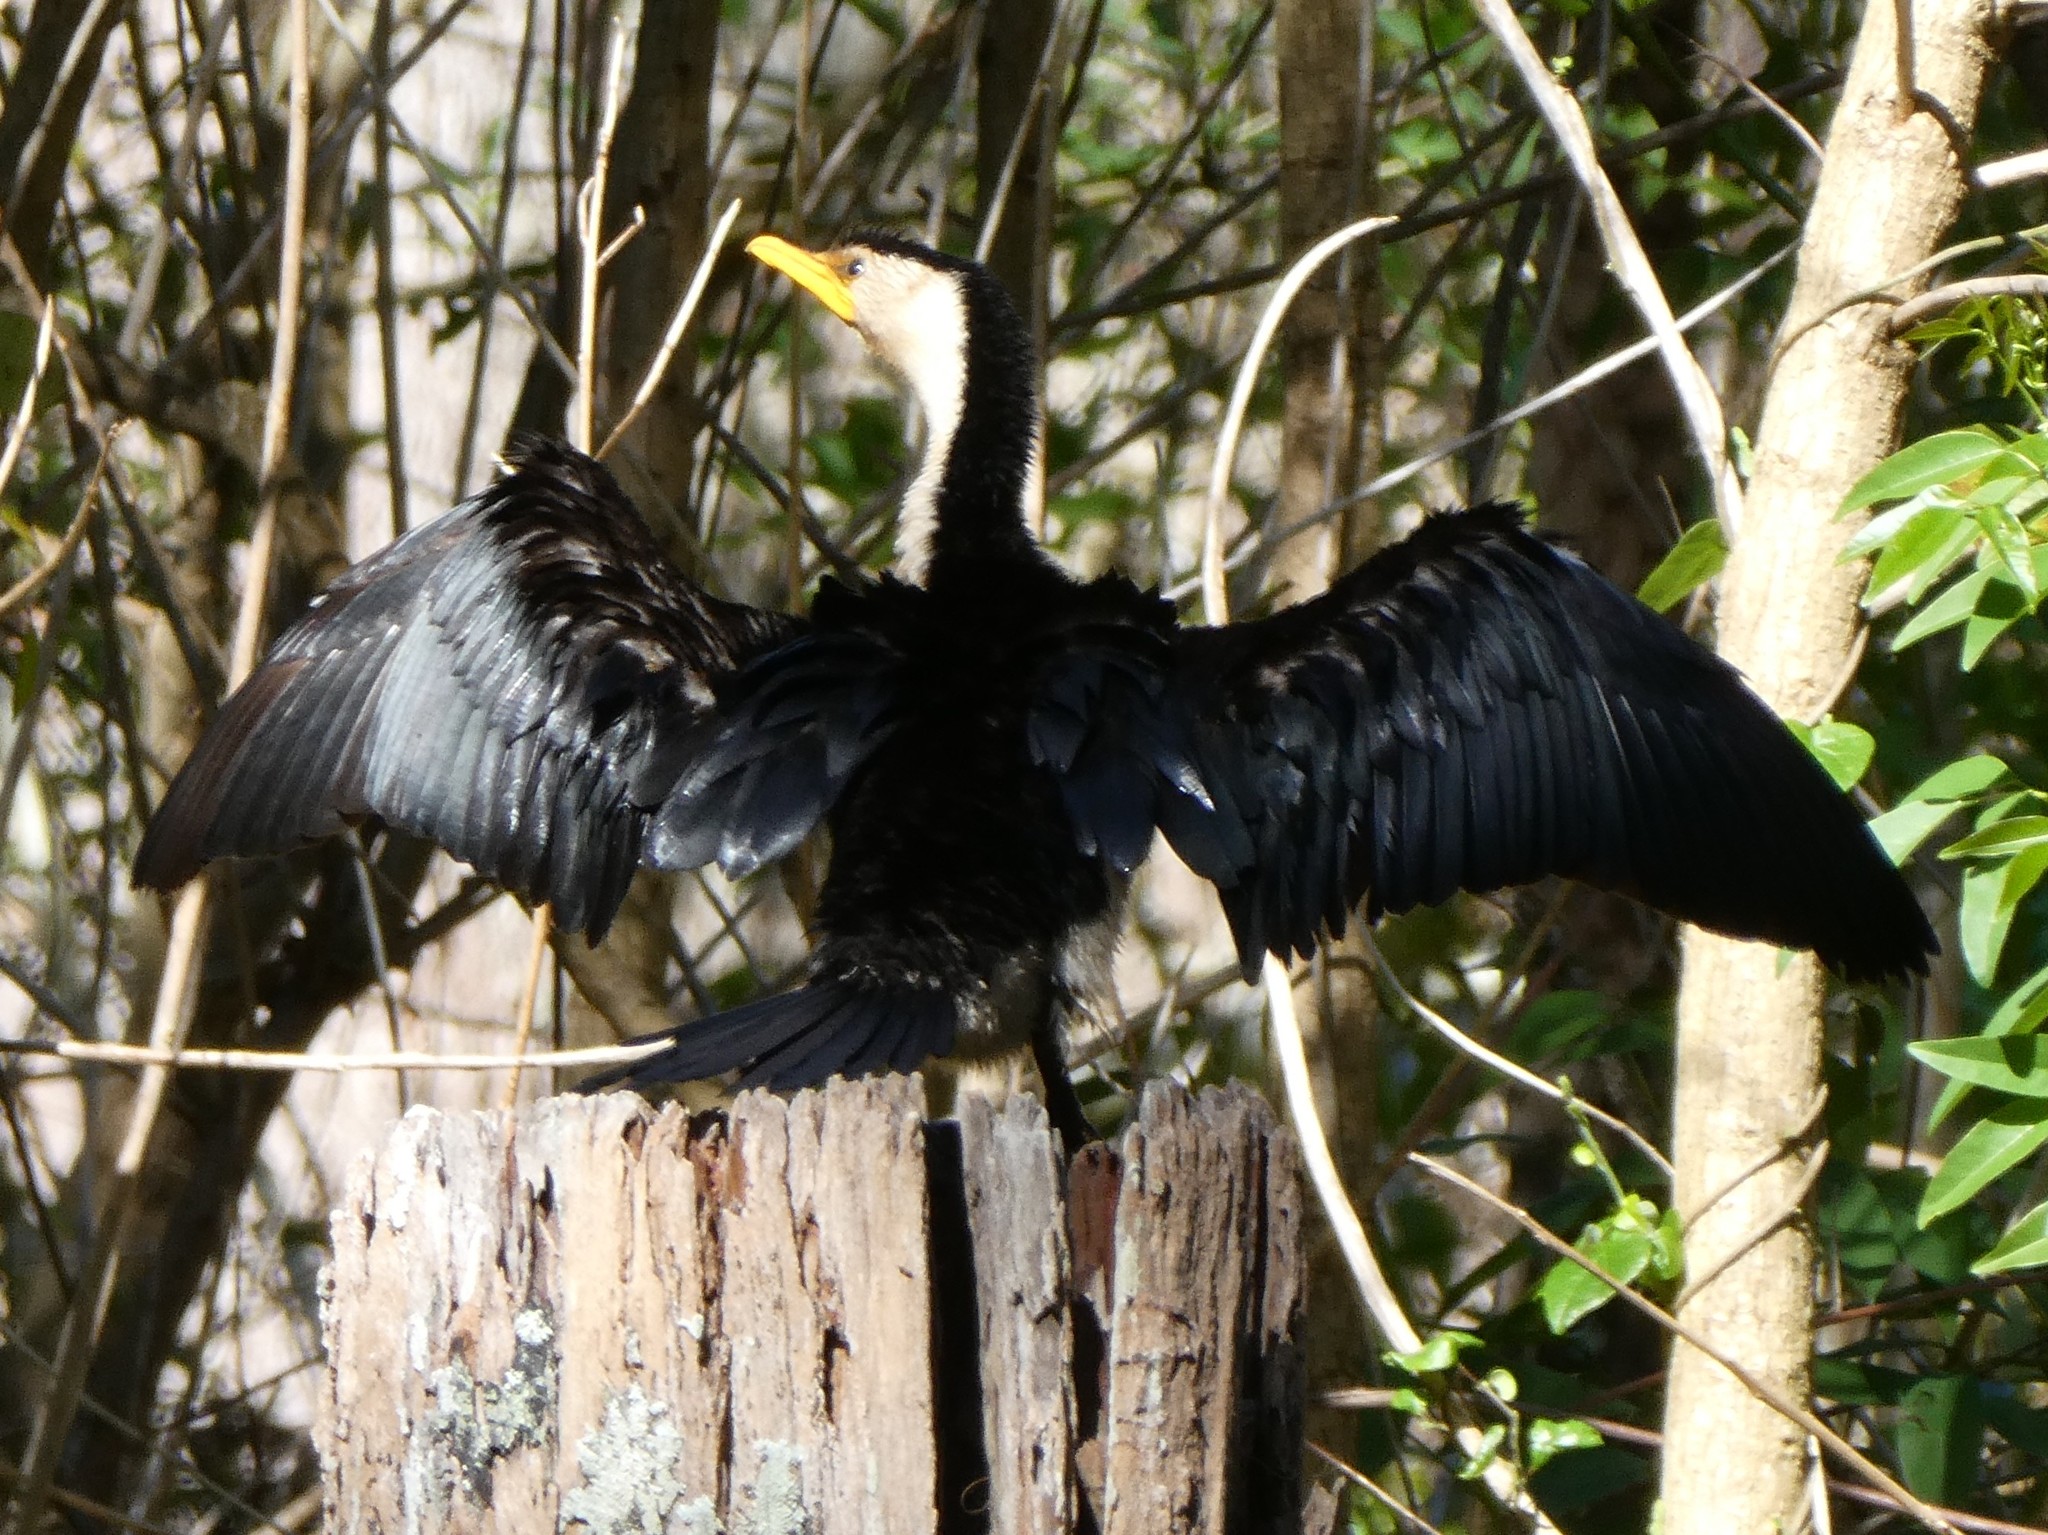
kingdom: Animalia
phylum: Chordata
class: Aves
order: Suliformes
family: Phalacrocoracidae
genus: Microcarbo
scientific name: Microcarbo melanoleucos
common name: Little pied cormorant
